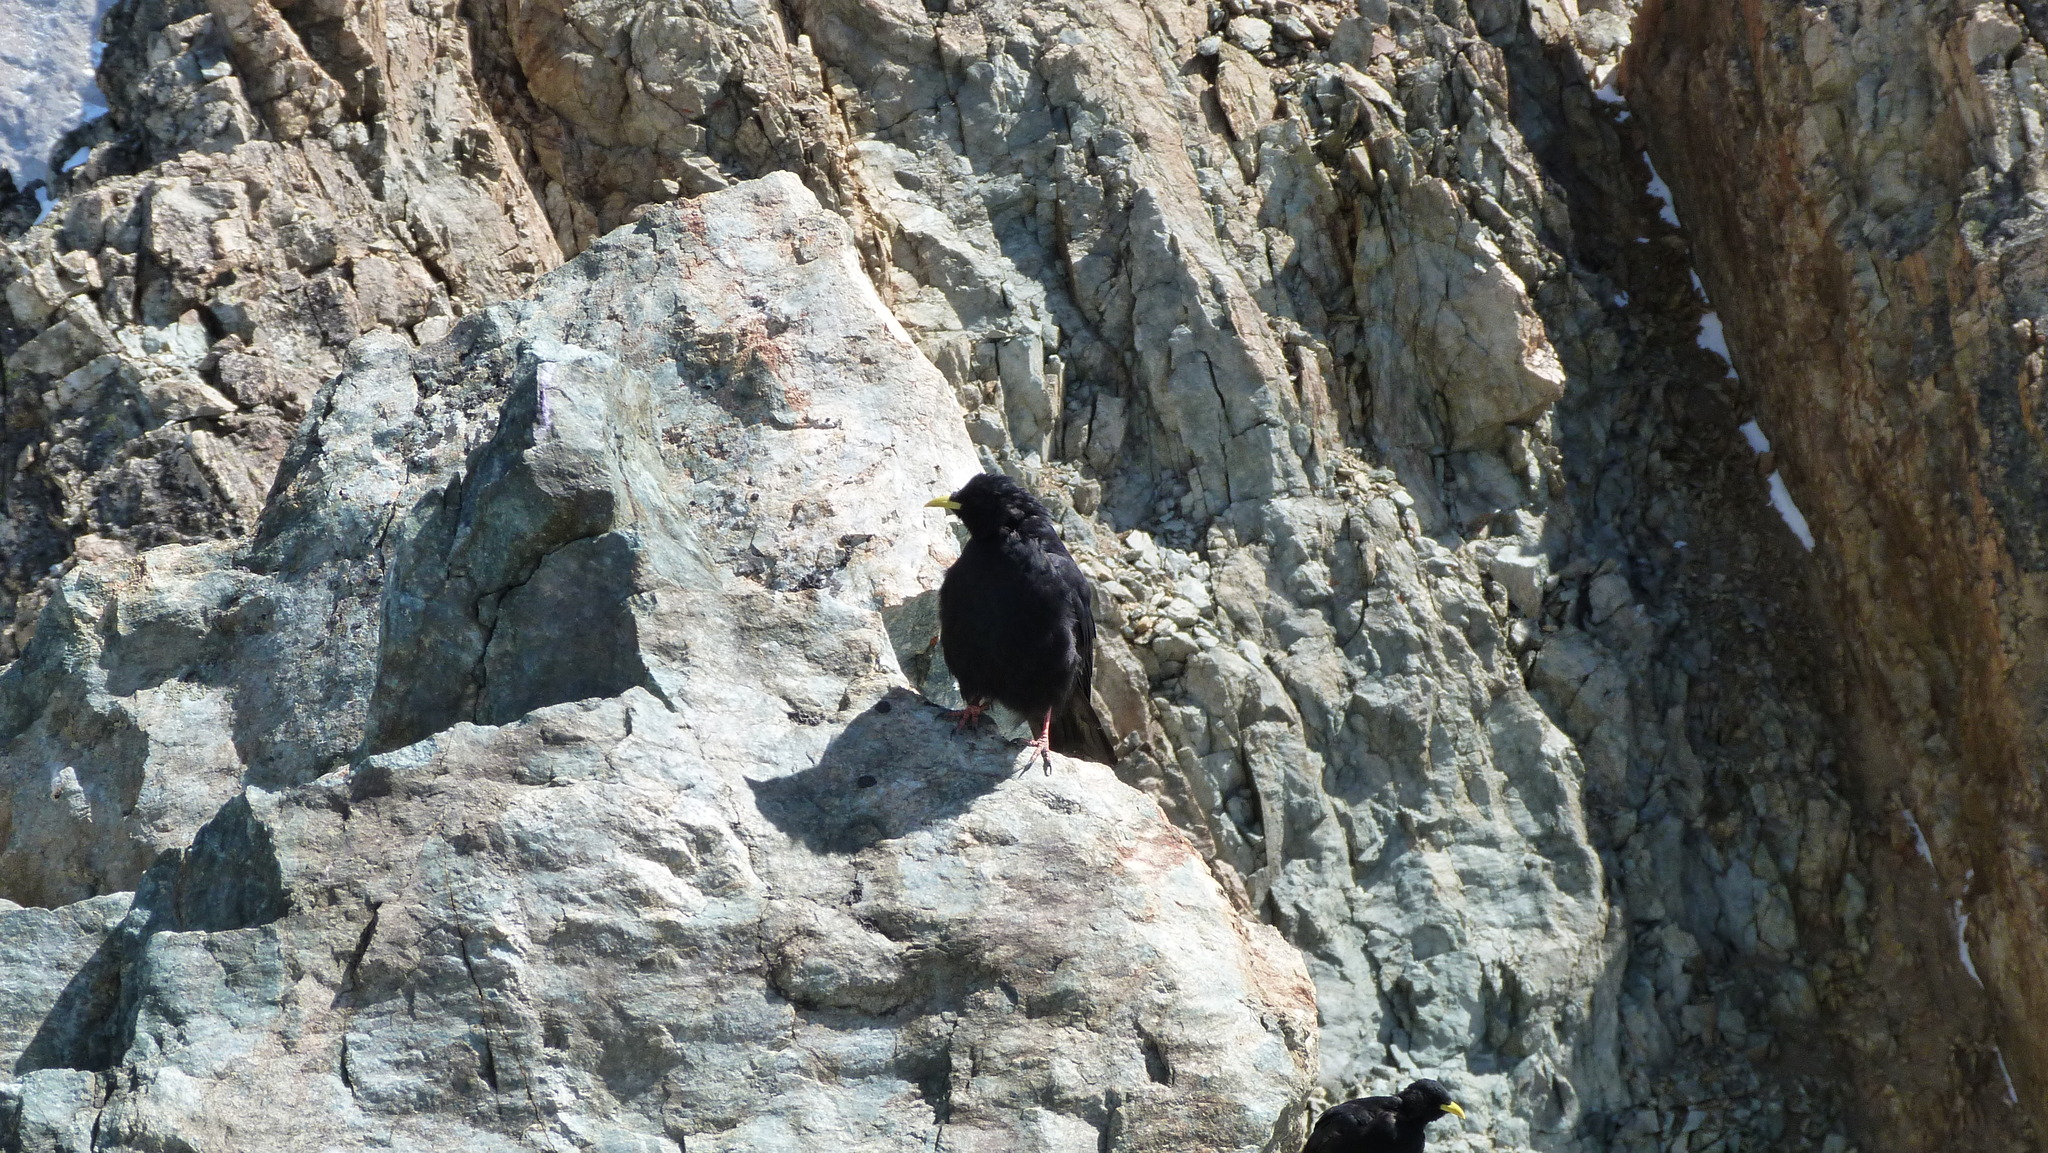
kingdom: Animalia
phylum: Chordata
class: Aves
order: Passeriformes
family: Corvidae
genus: Pyrrhocorax
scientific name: Pyrrhocorax graculus
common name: Alpine chough
